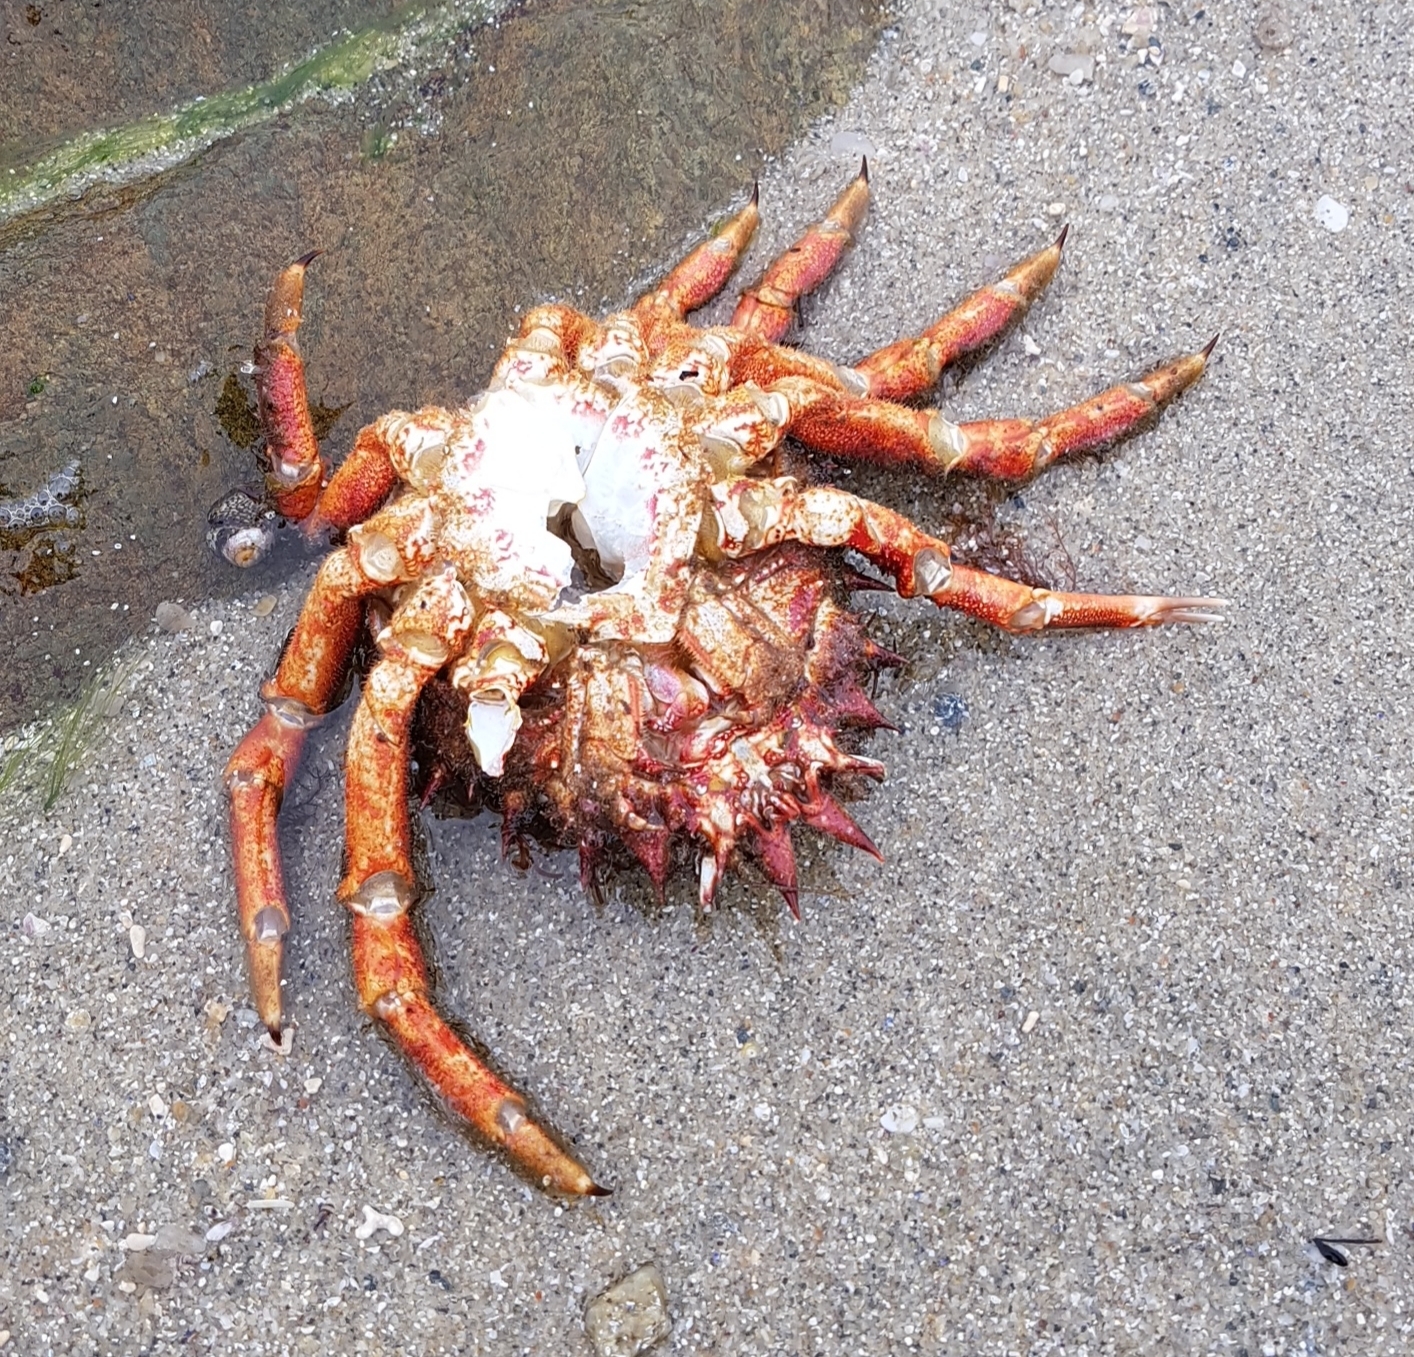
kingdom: Animalia
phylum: Arthropoda
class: Malacostraca
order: Decapoda
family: Majidae
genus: Maja
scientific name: Maja brachydactyla
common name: Common spider crab
